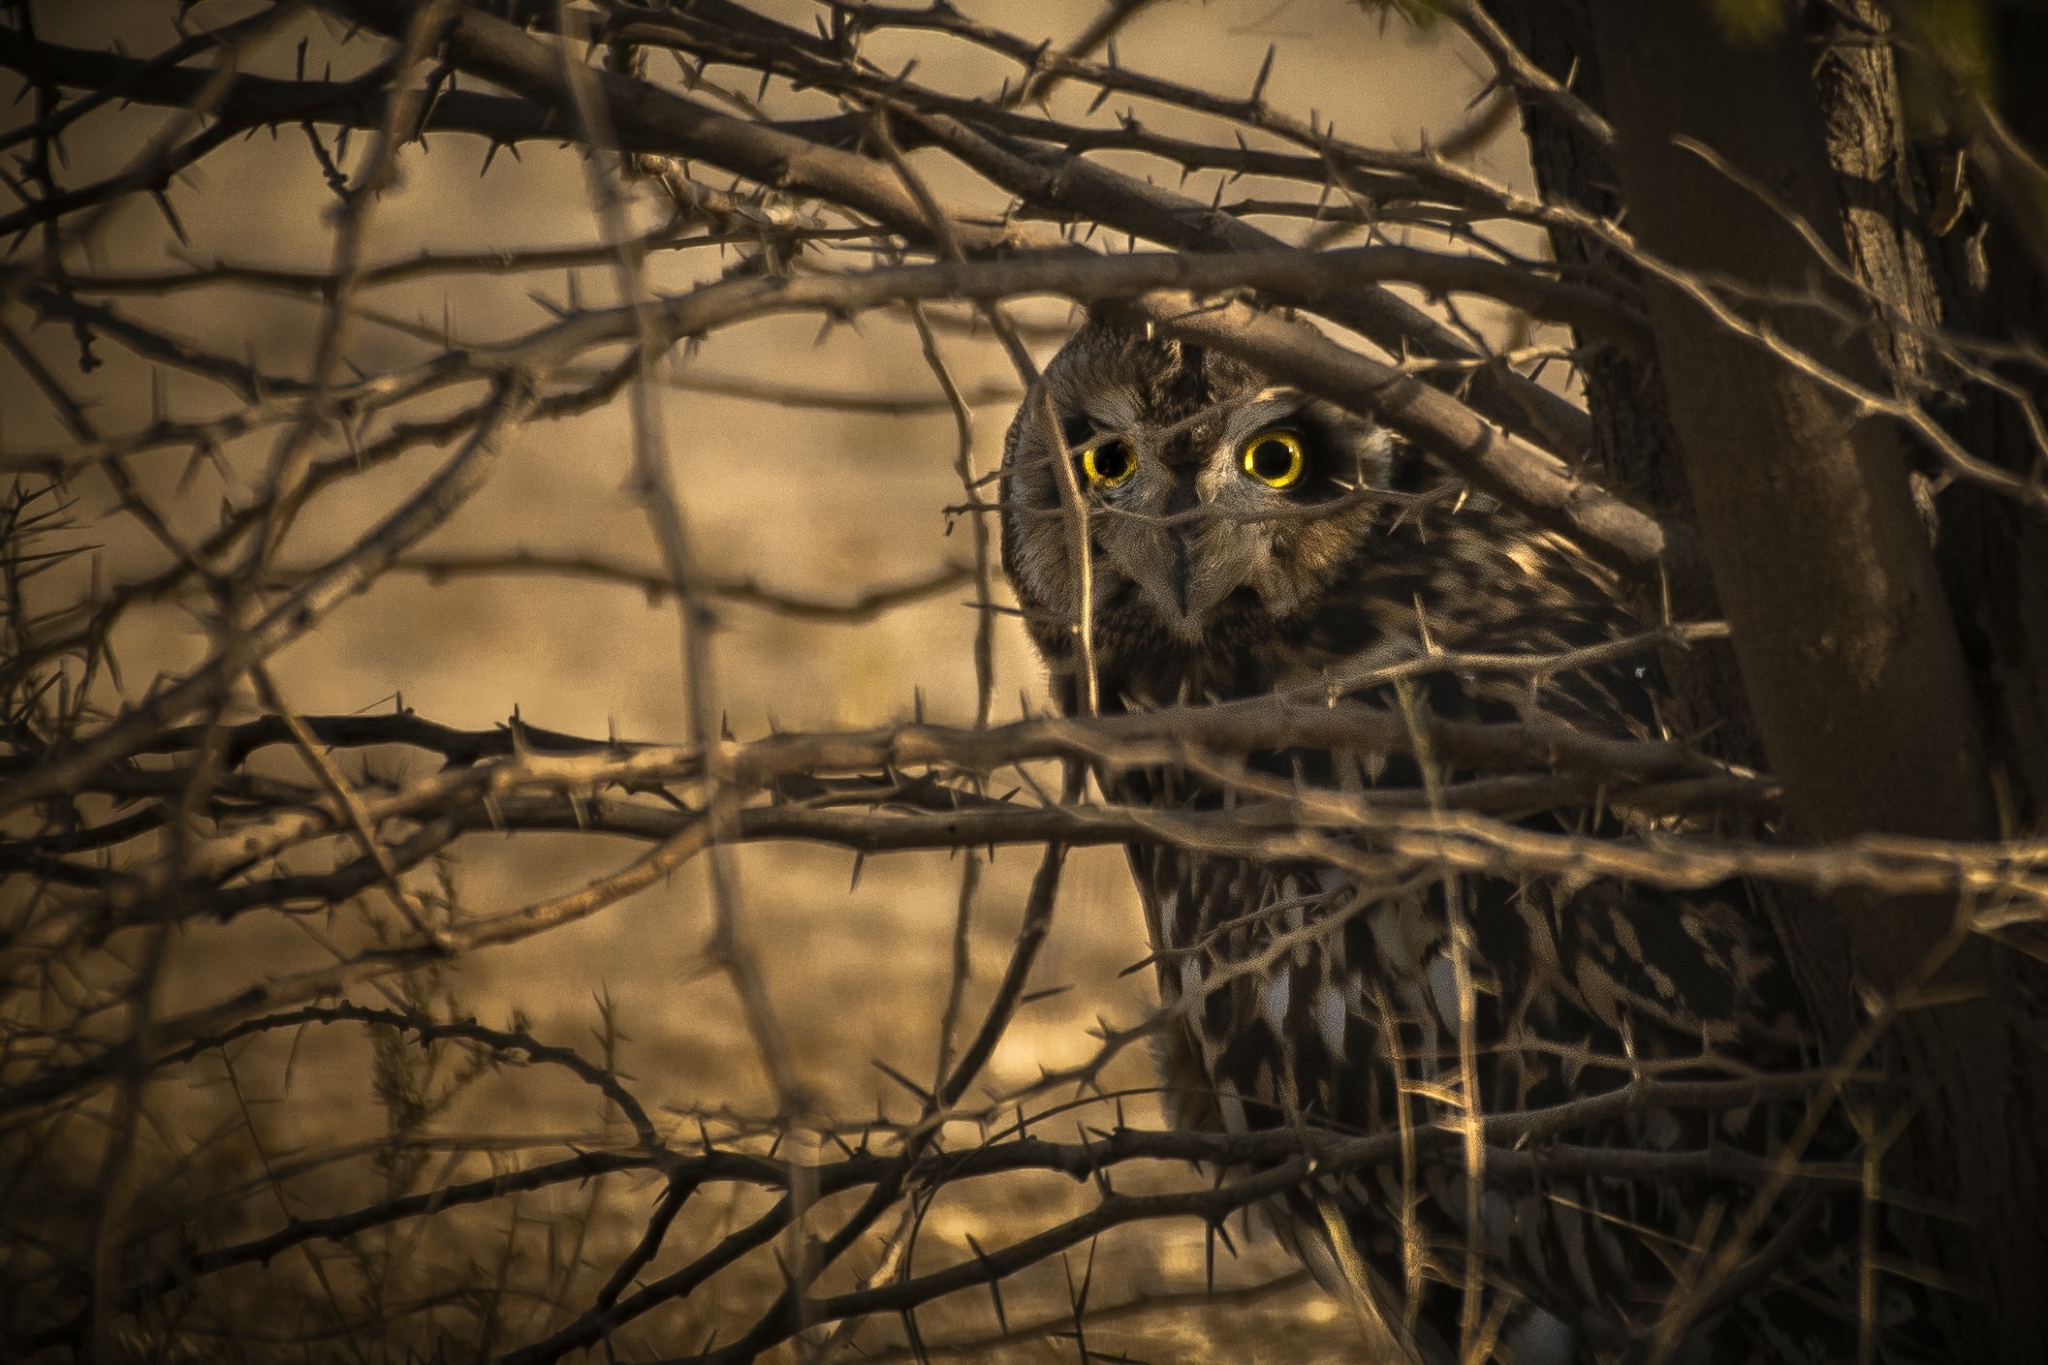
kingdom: Animalia
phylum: Chordata
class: Aves
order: Strigiformes
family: Strigidae
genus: Asio
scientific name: Asio flammeus
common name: Short-eared owl
